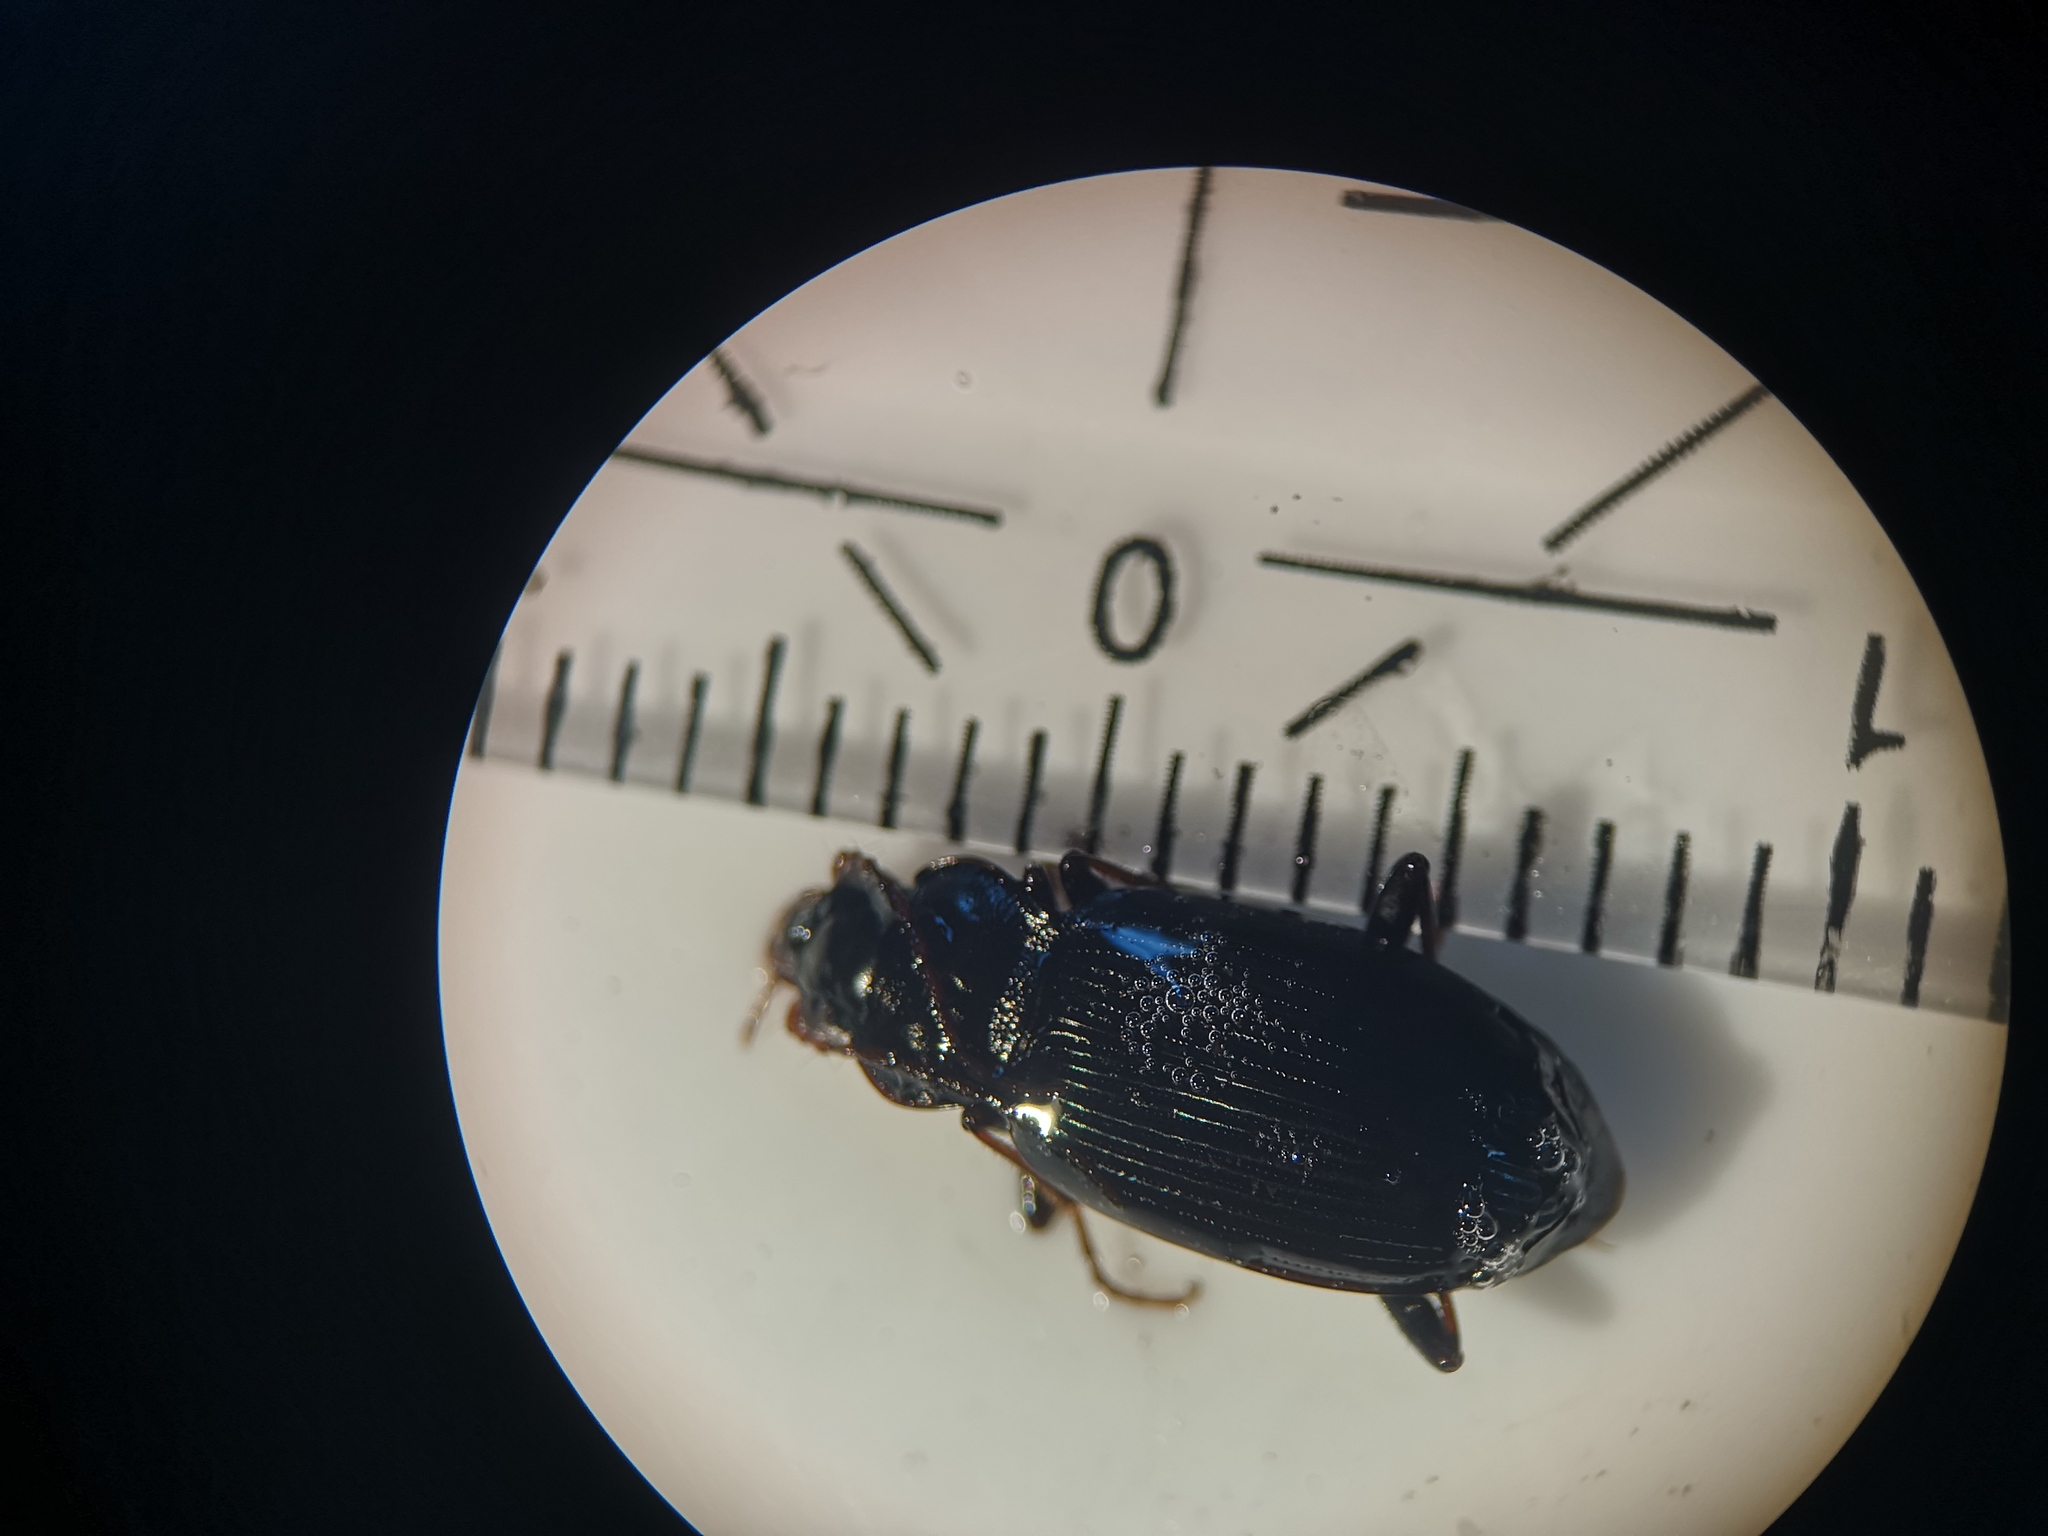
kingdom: Animalia
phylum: Arthropoda
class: Insecta
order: Coleoptera
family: Carabidae
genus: Nebria
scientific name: Nebria brevicollis
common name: Short-necked gazelle beetle
